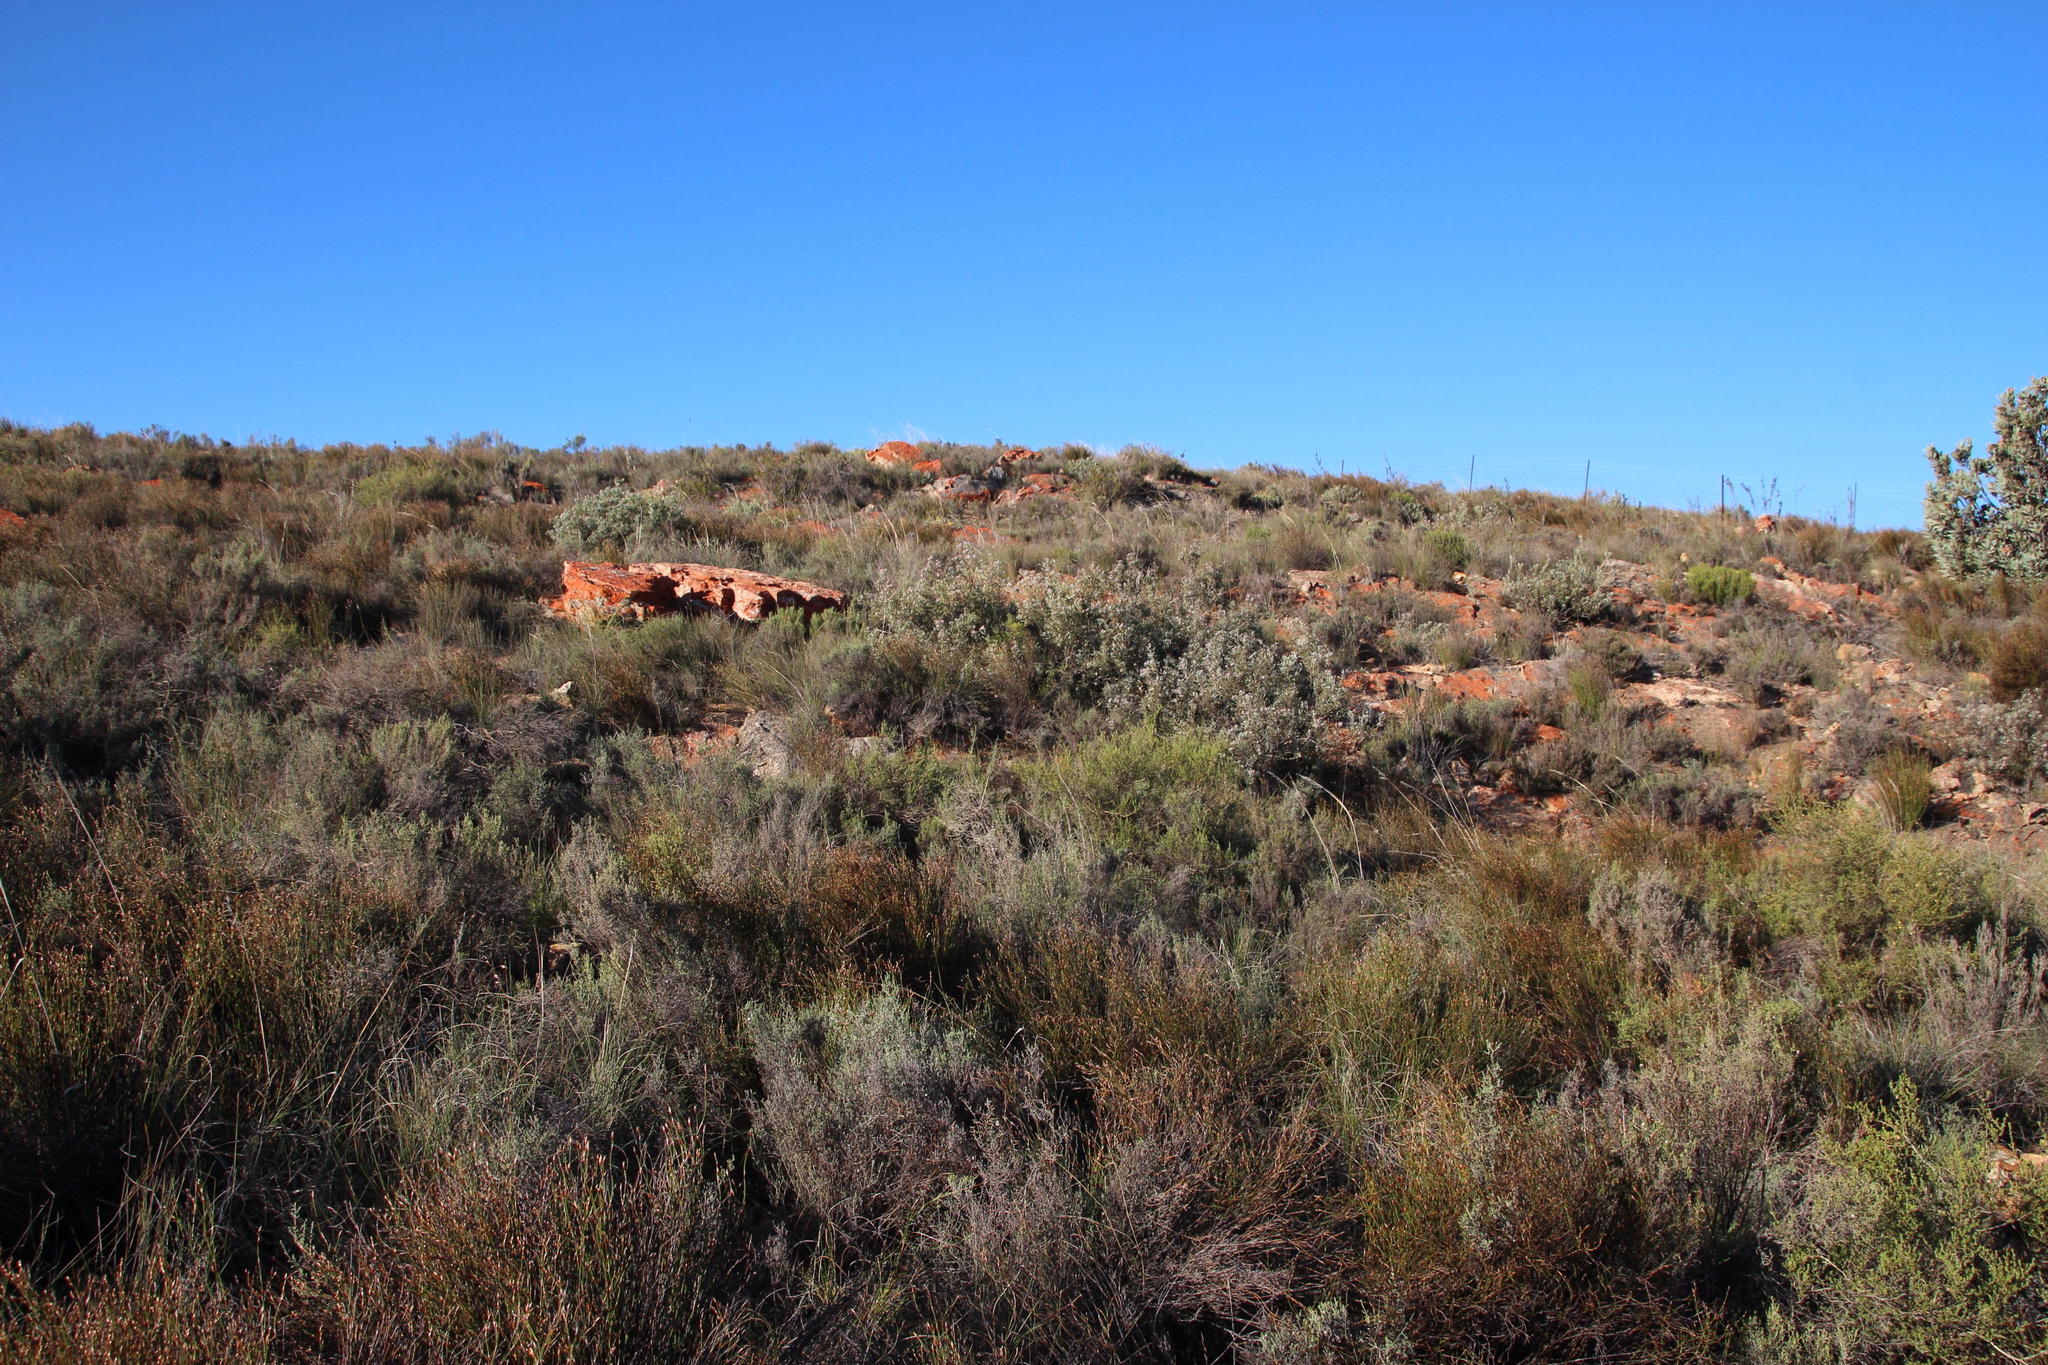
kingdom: Plantae
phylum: Tracheophyta
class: Magnoliopsida
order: Proteales
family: Proteaceae
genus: Vexatorella
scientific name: Vexatorella obtusata
